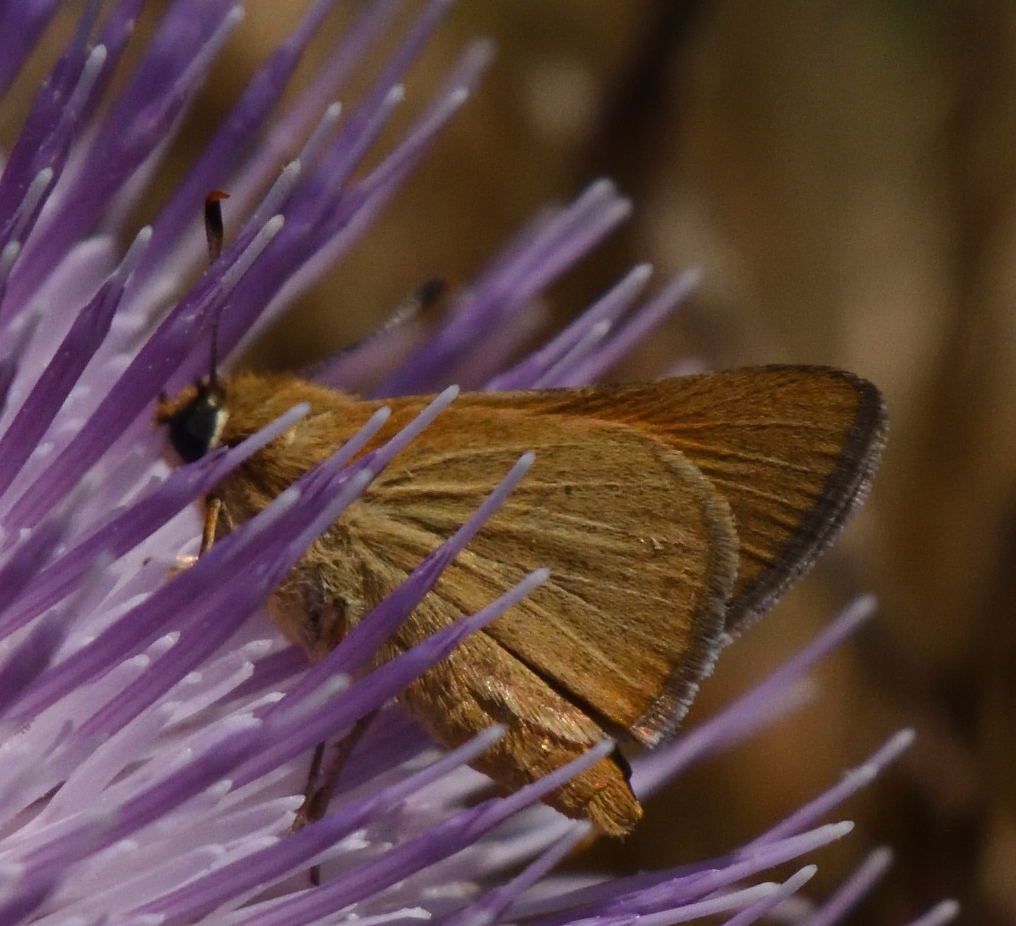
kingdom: Animalia
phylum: Arthropoda
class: Insecta
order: Lepidoptera
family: Hesperiidae
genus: Atrytone
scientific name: Atrytone arogos
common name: Arogos skipper
